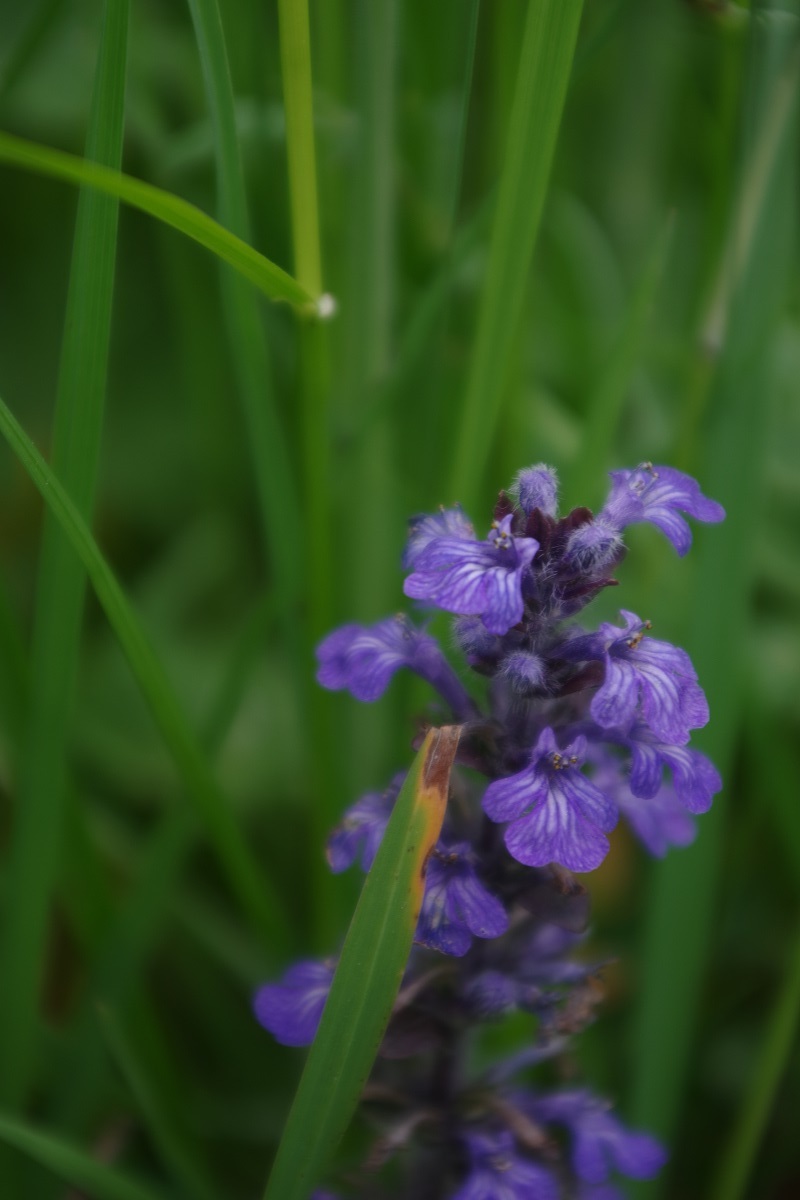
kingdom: Plantae
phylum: Tracheophyta
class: Magnoliopsida
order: Lamiales
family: Lamiaceae
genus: Ajuga
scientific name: Ajuga reptans
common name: Bugle
